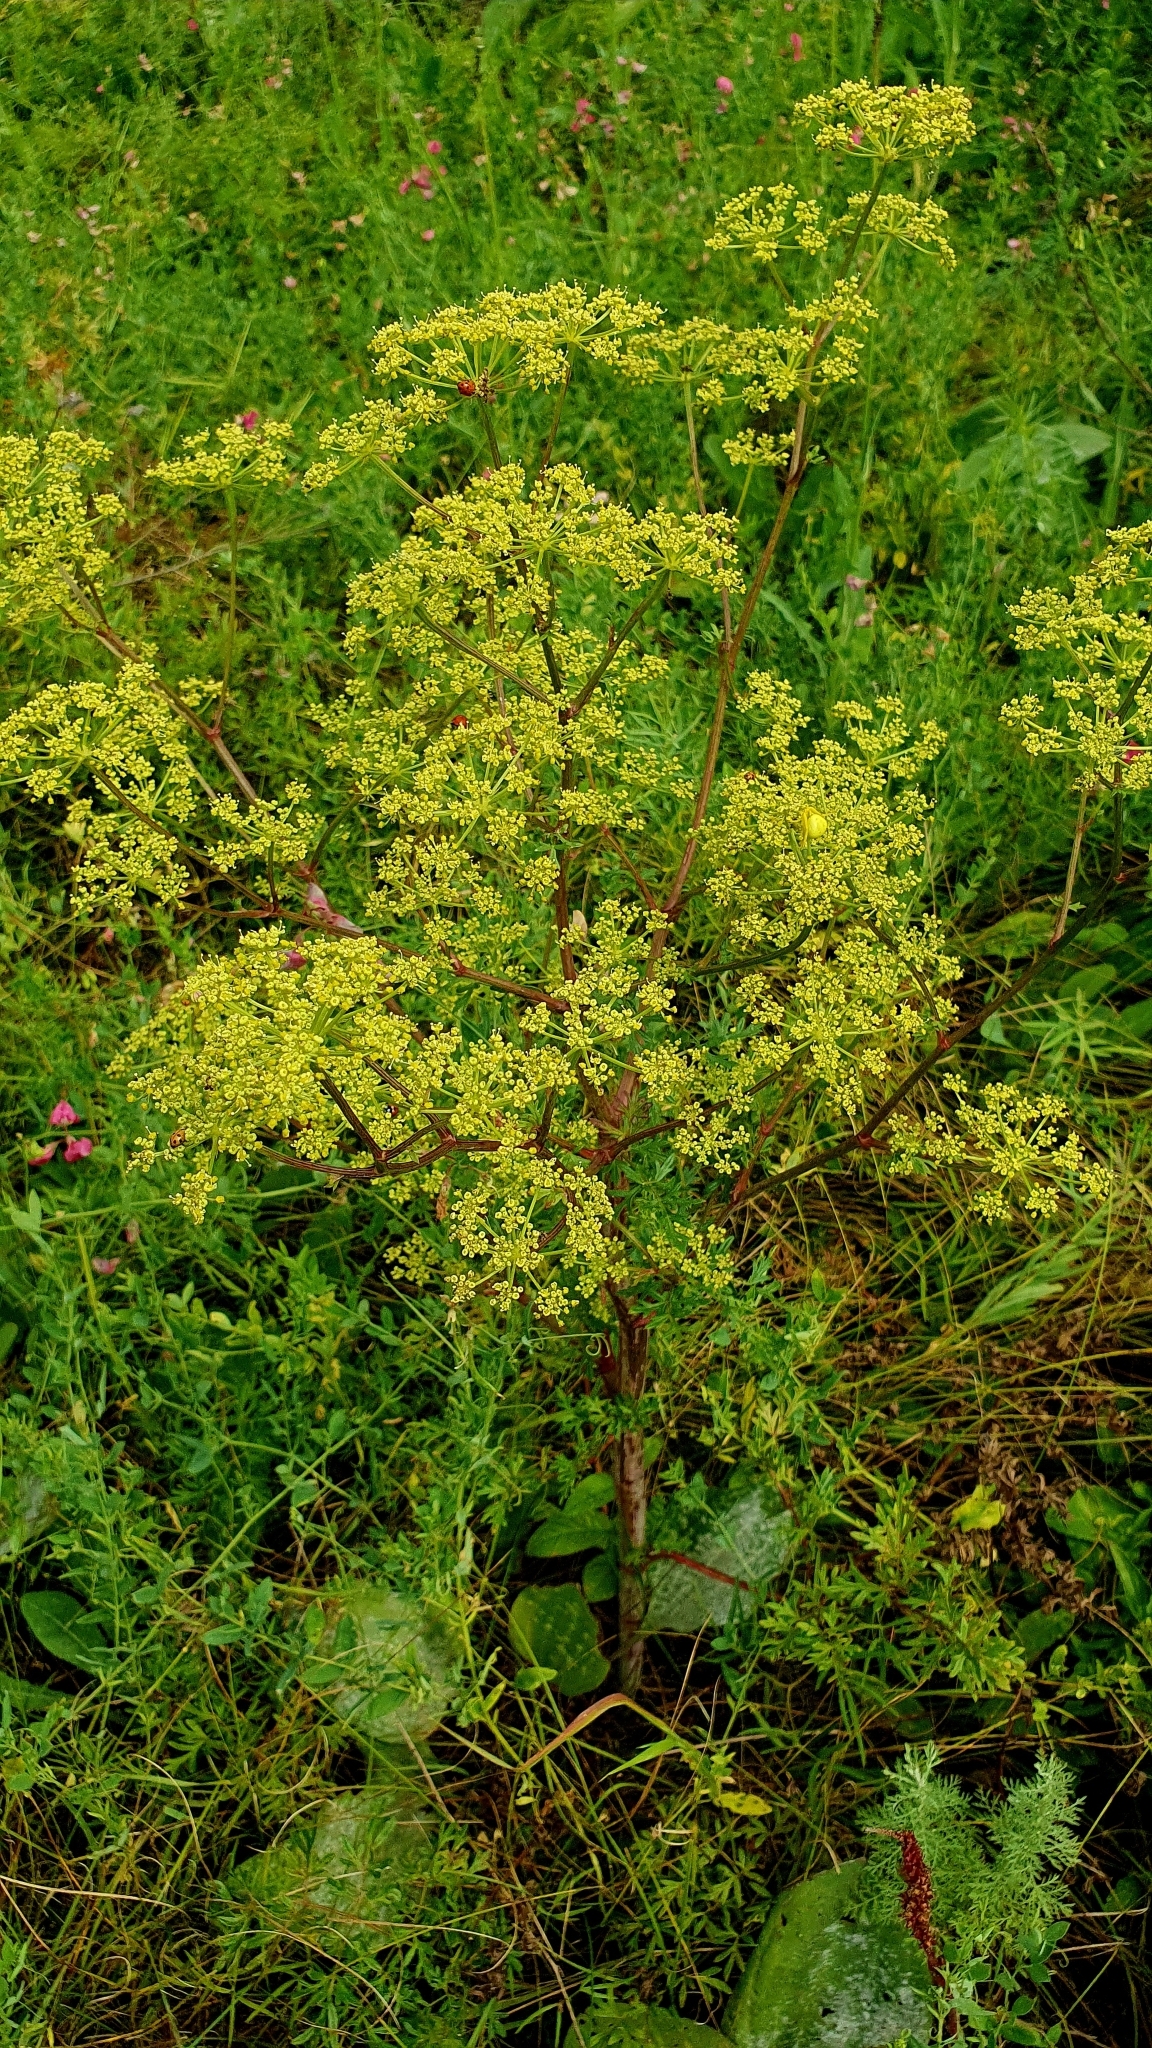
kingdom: Plantae
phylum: Tracheophyta
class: Magnoliopsida
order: Apiales
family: Apiaceae
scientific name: Apiaceae
